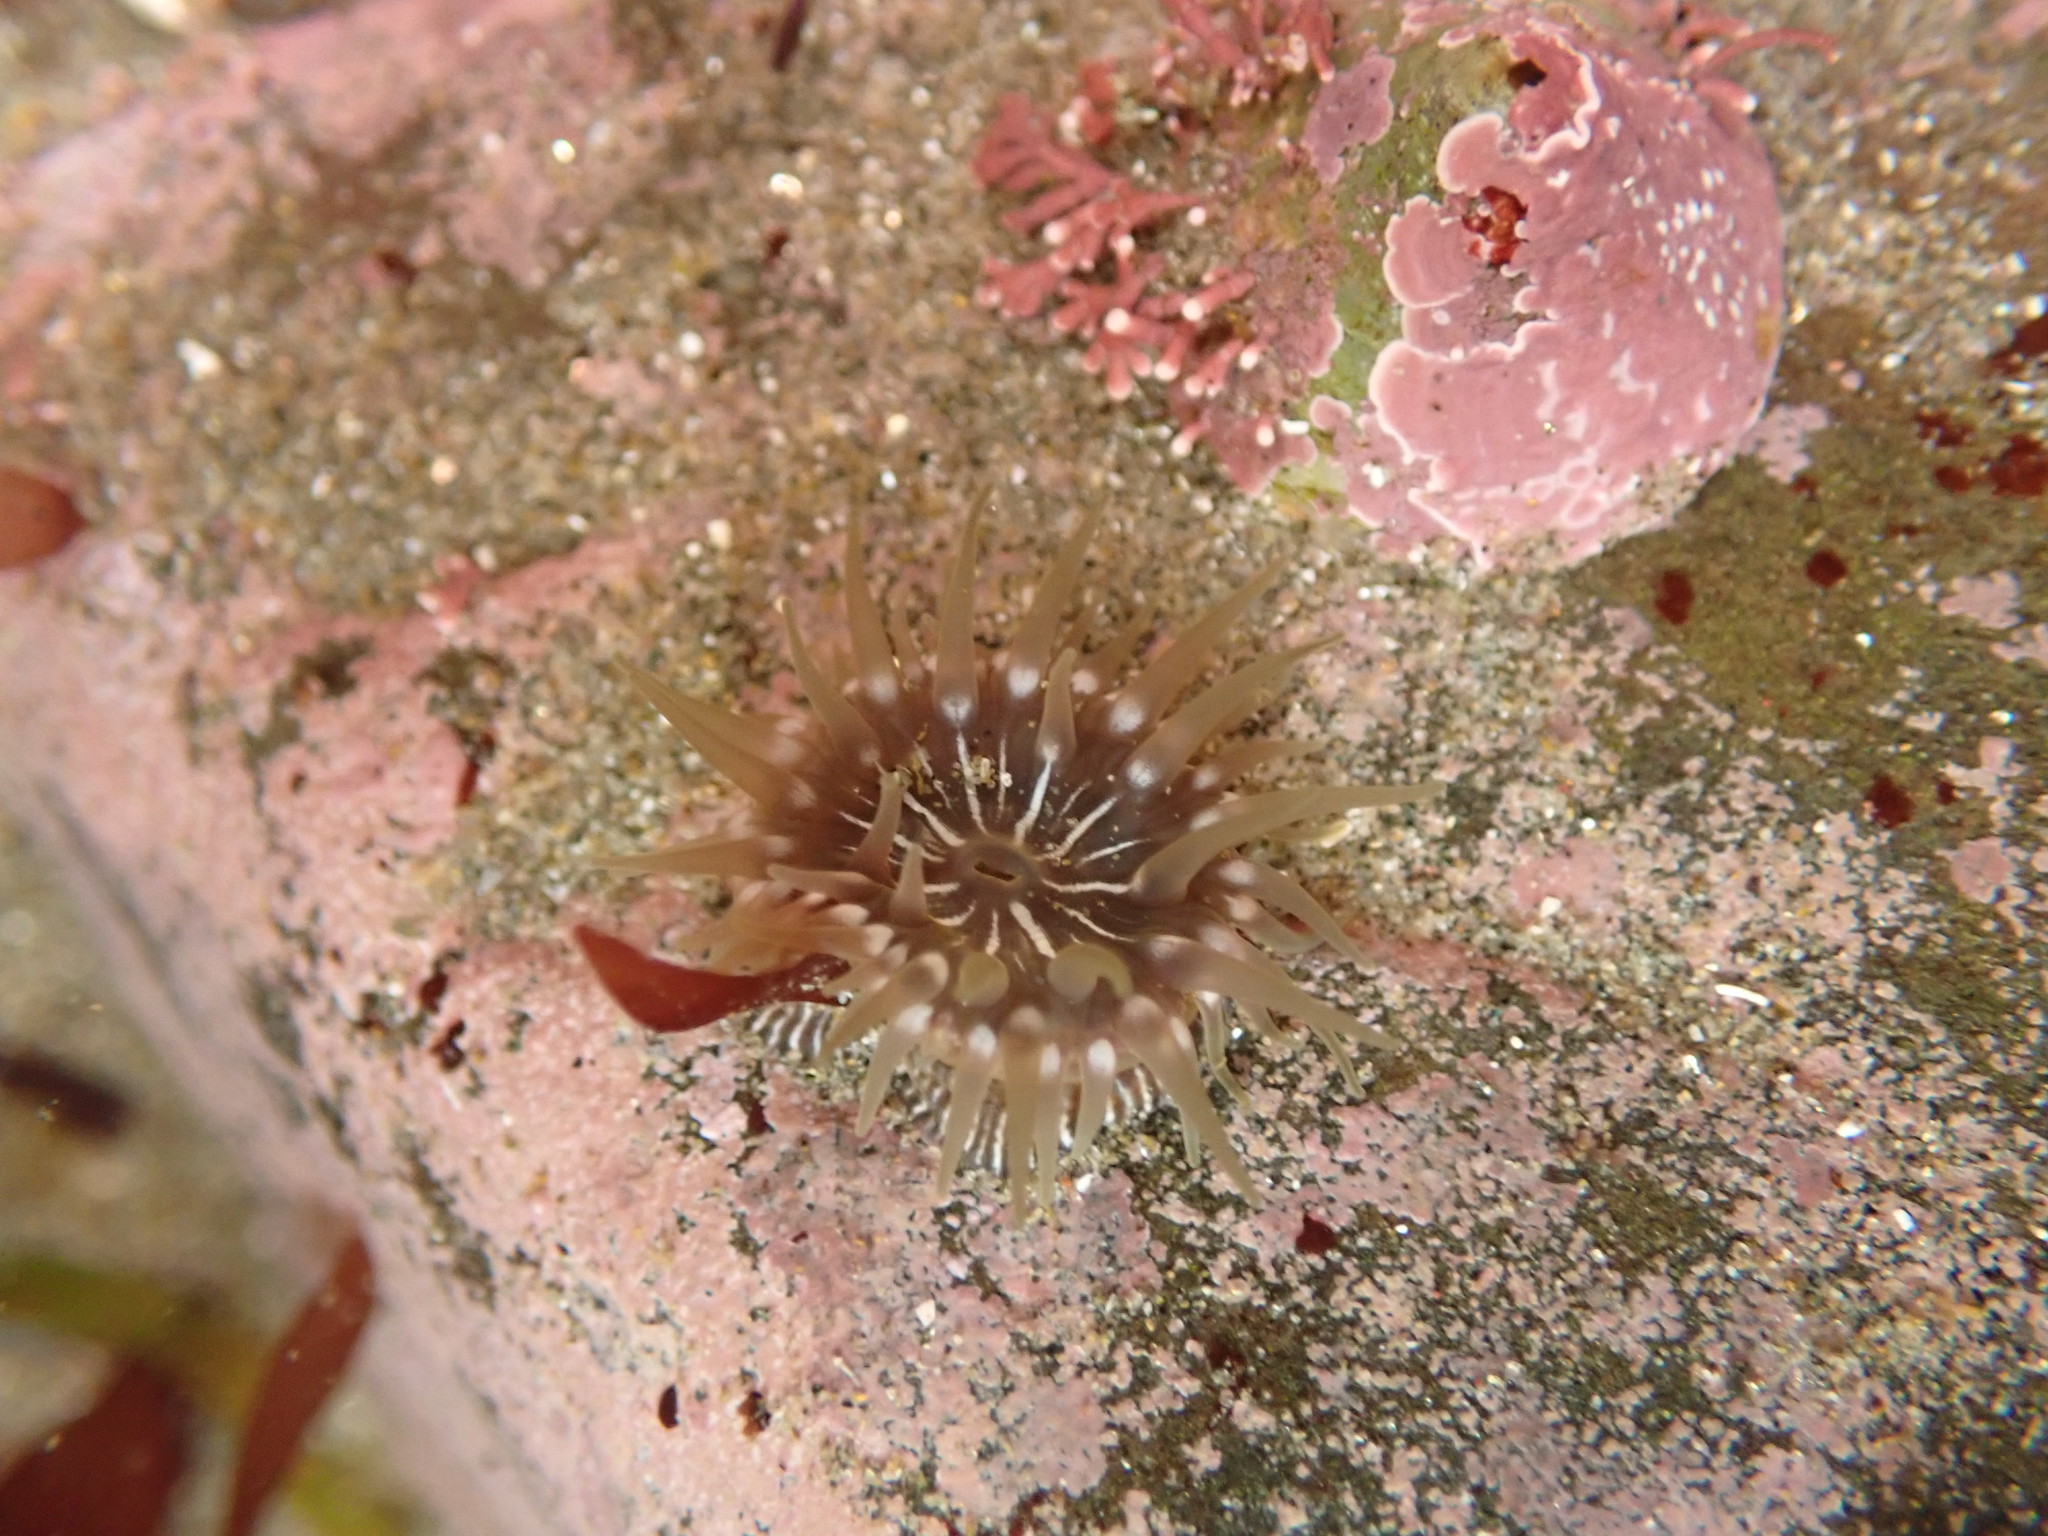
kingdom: Animalia
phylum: Cnidaria
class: Anthozoa
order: Actiniaria
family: Actiniidae
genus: Epiactis
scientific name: Epiactis prolifera
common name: Brooding anemone
